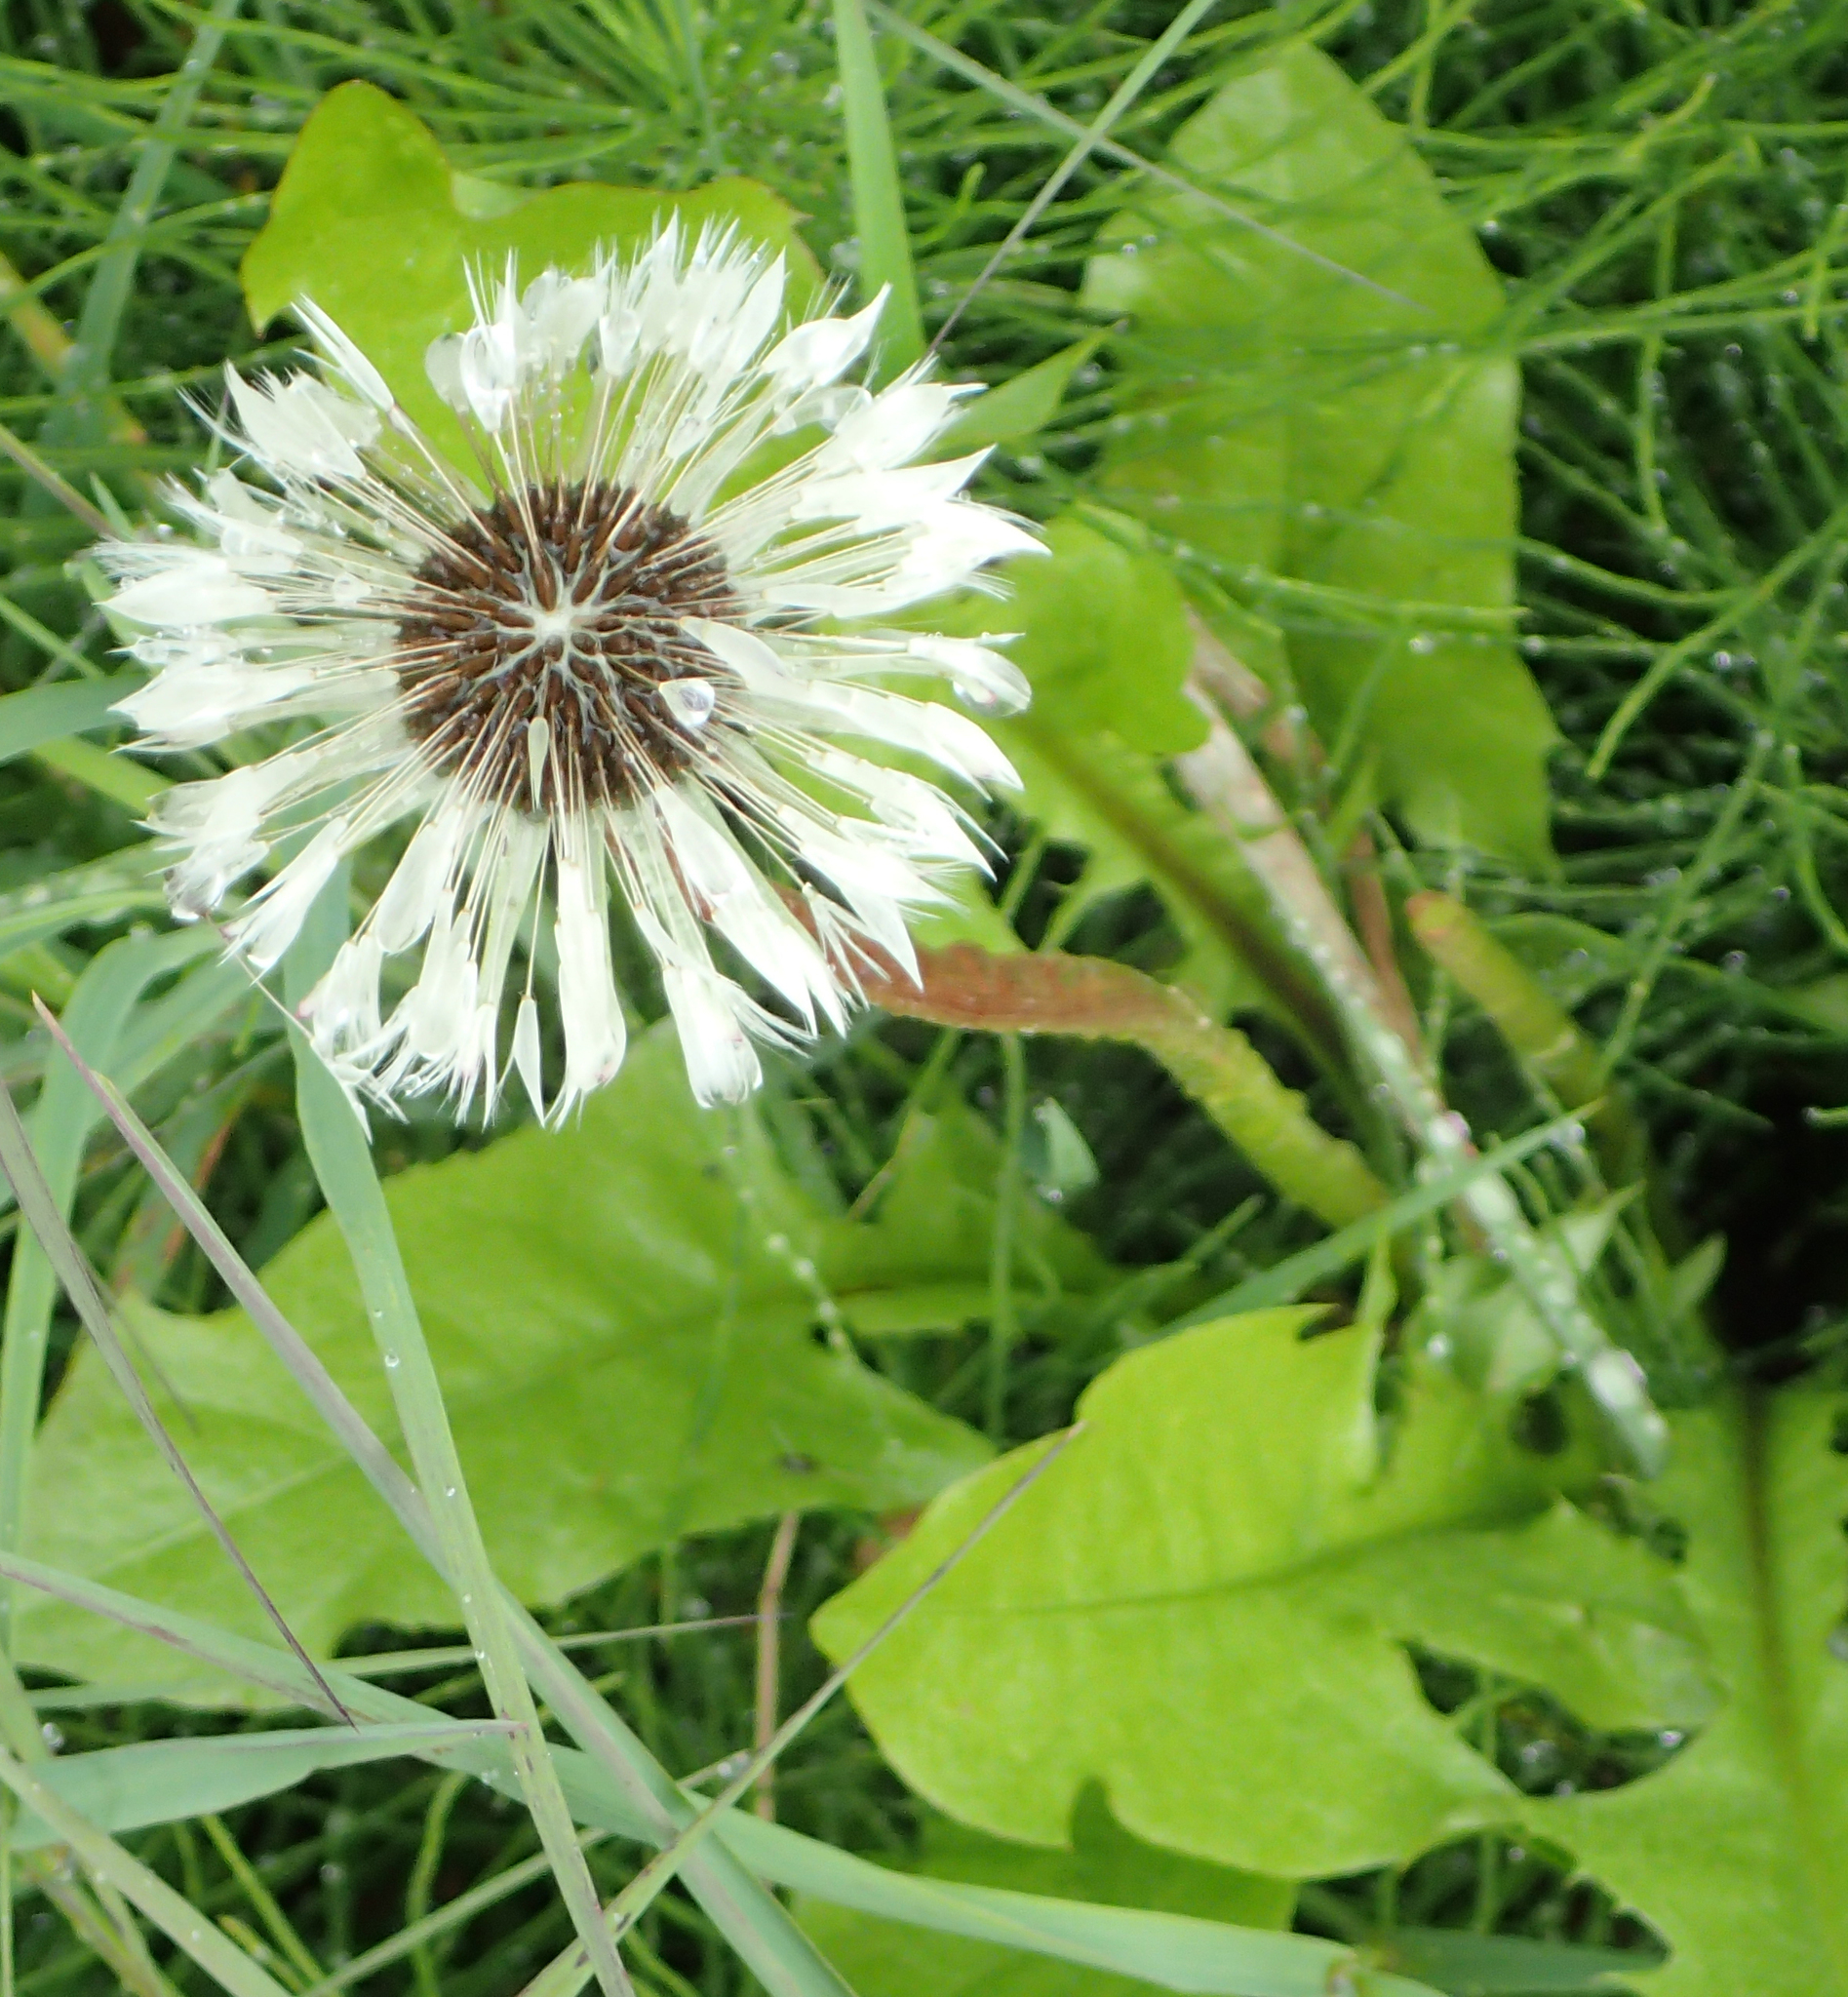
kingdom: Plantae
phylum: Tracheophyta
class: Magnoliopsida
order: Asterales
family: Asteraceae
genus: Taraxacum
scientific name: Taraxacum officinale
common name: Common dandelion
